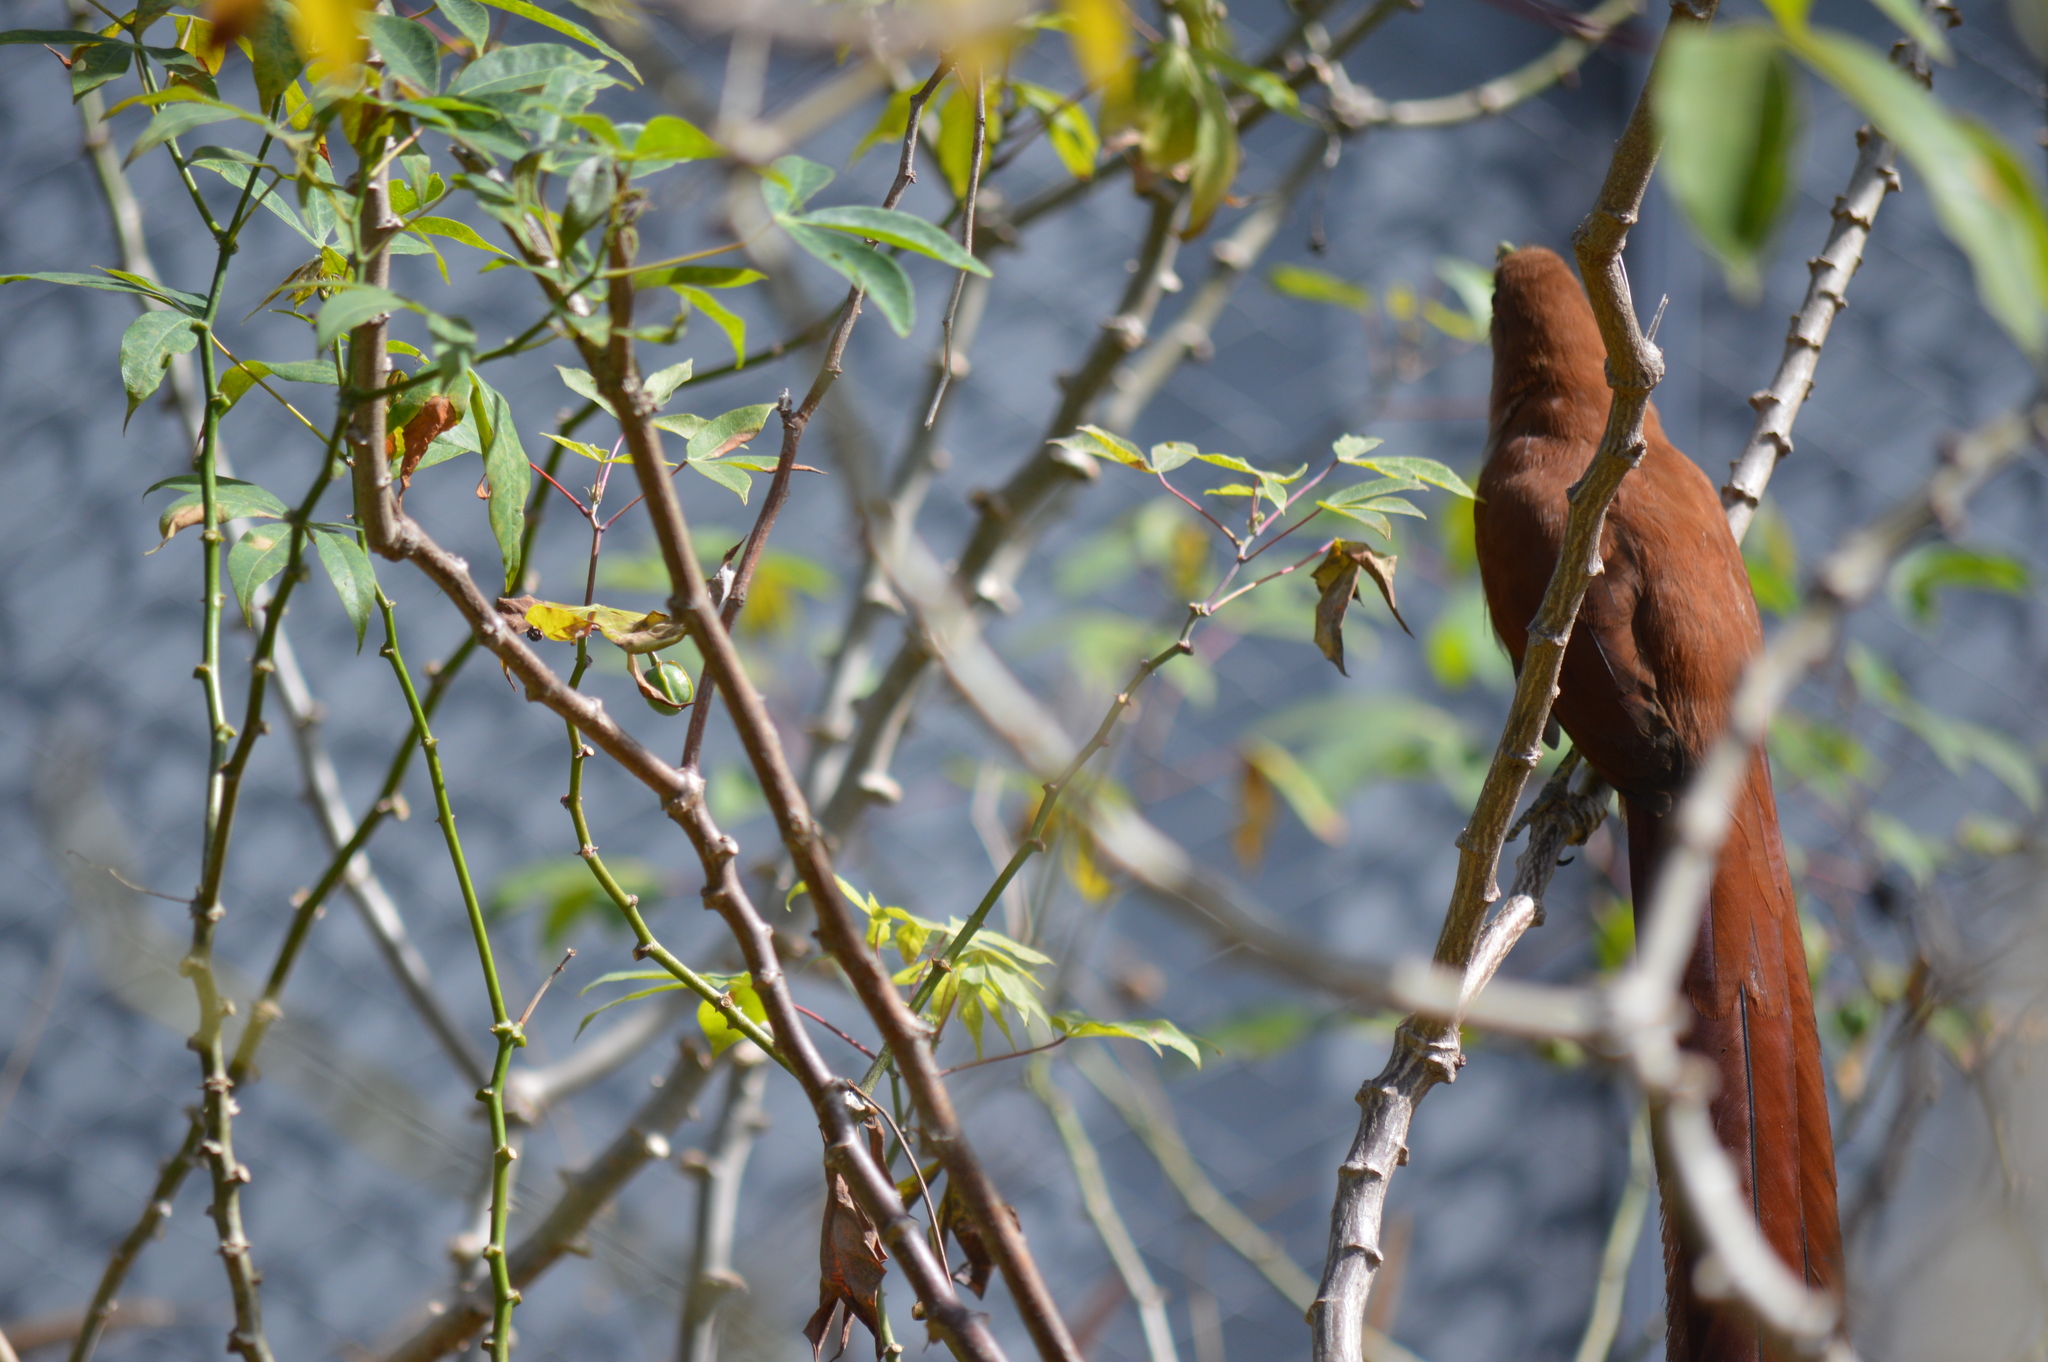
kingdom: Animalia
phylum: Chordata
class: Aves
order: Cuculiformes
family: Cuculidae
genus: Piaya
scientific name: Piaya cayana
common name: Squirrel cuckoo
